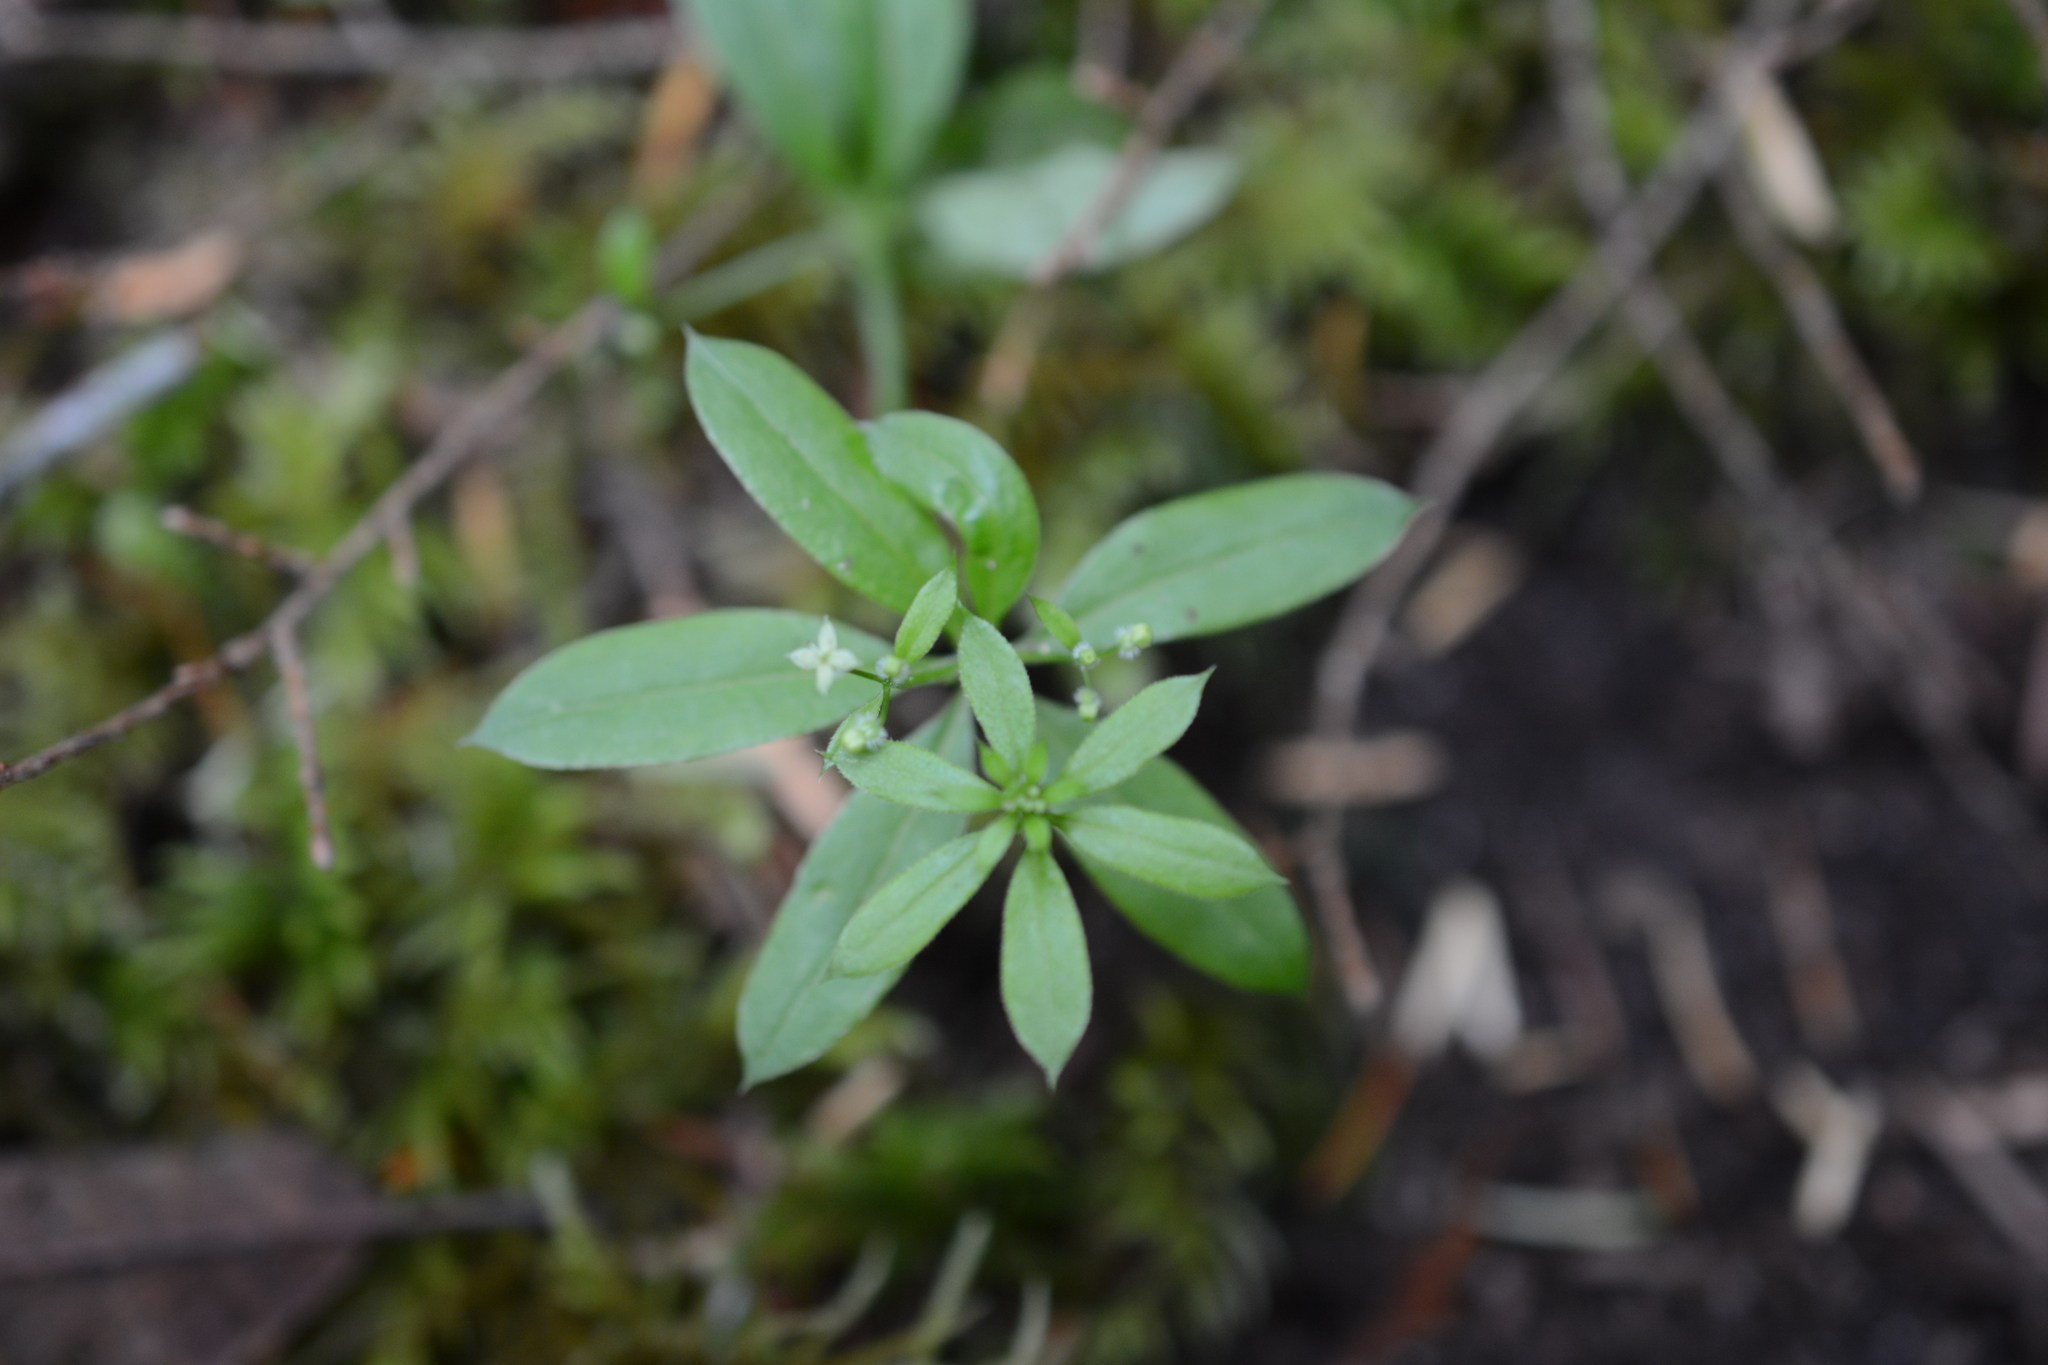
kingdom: Plantae
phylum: Tracheophyta
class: Magnoliopsida
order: Gentianales
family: Rubiaceae
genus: Galium
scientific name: Galium triflorum
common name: Fragrant bedstraw
